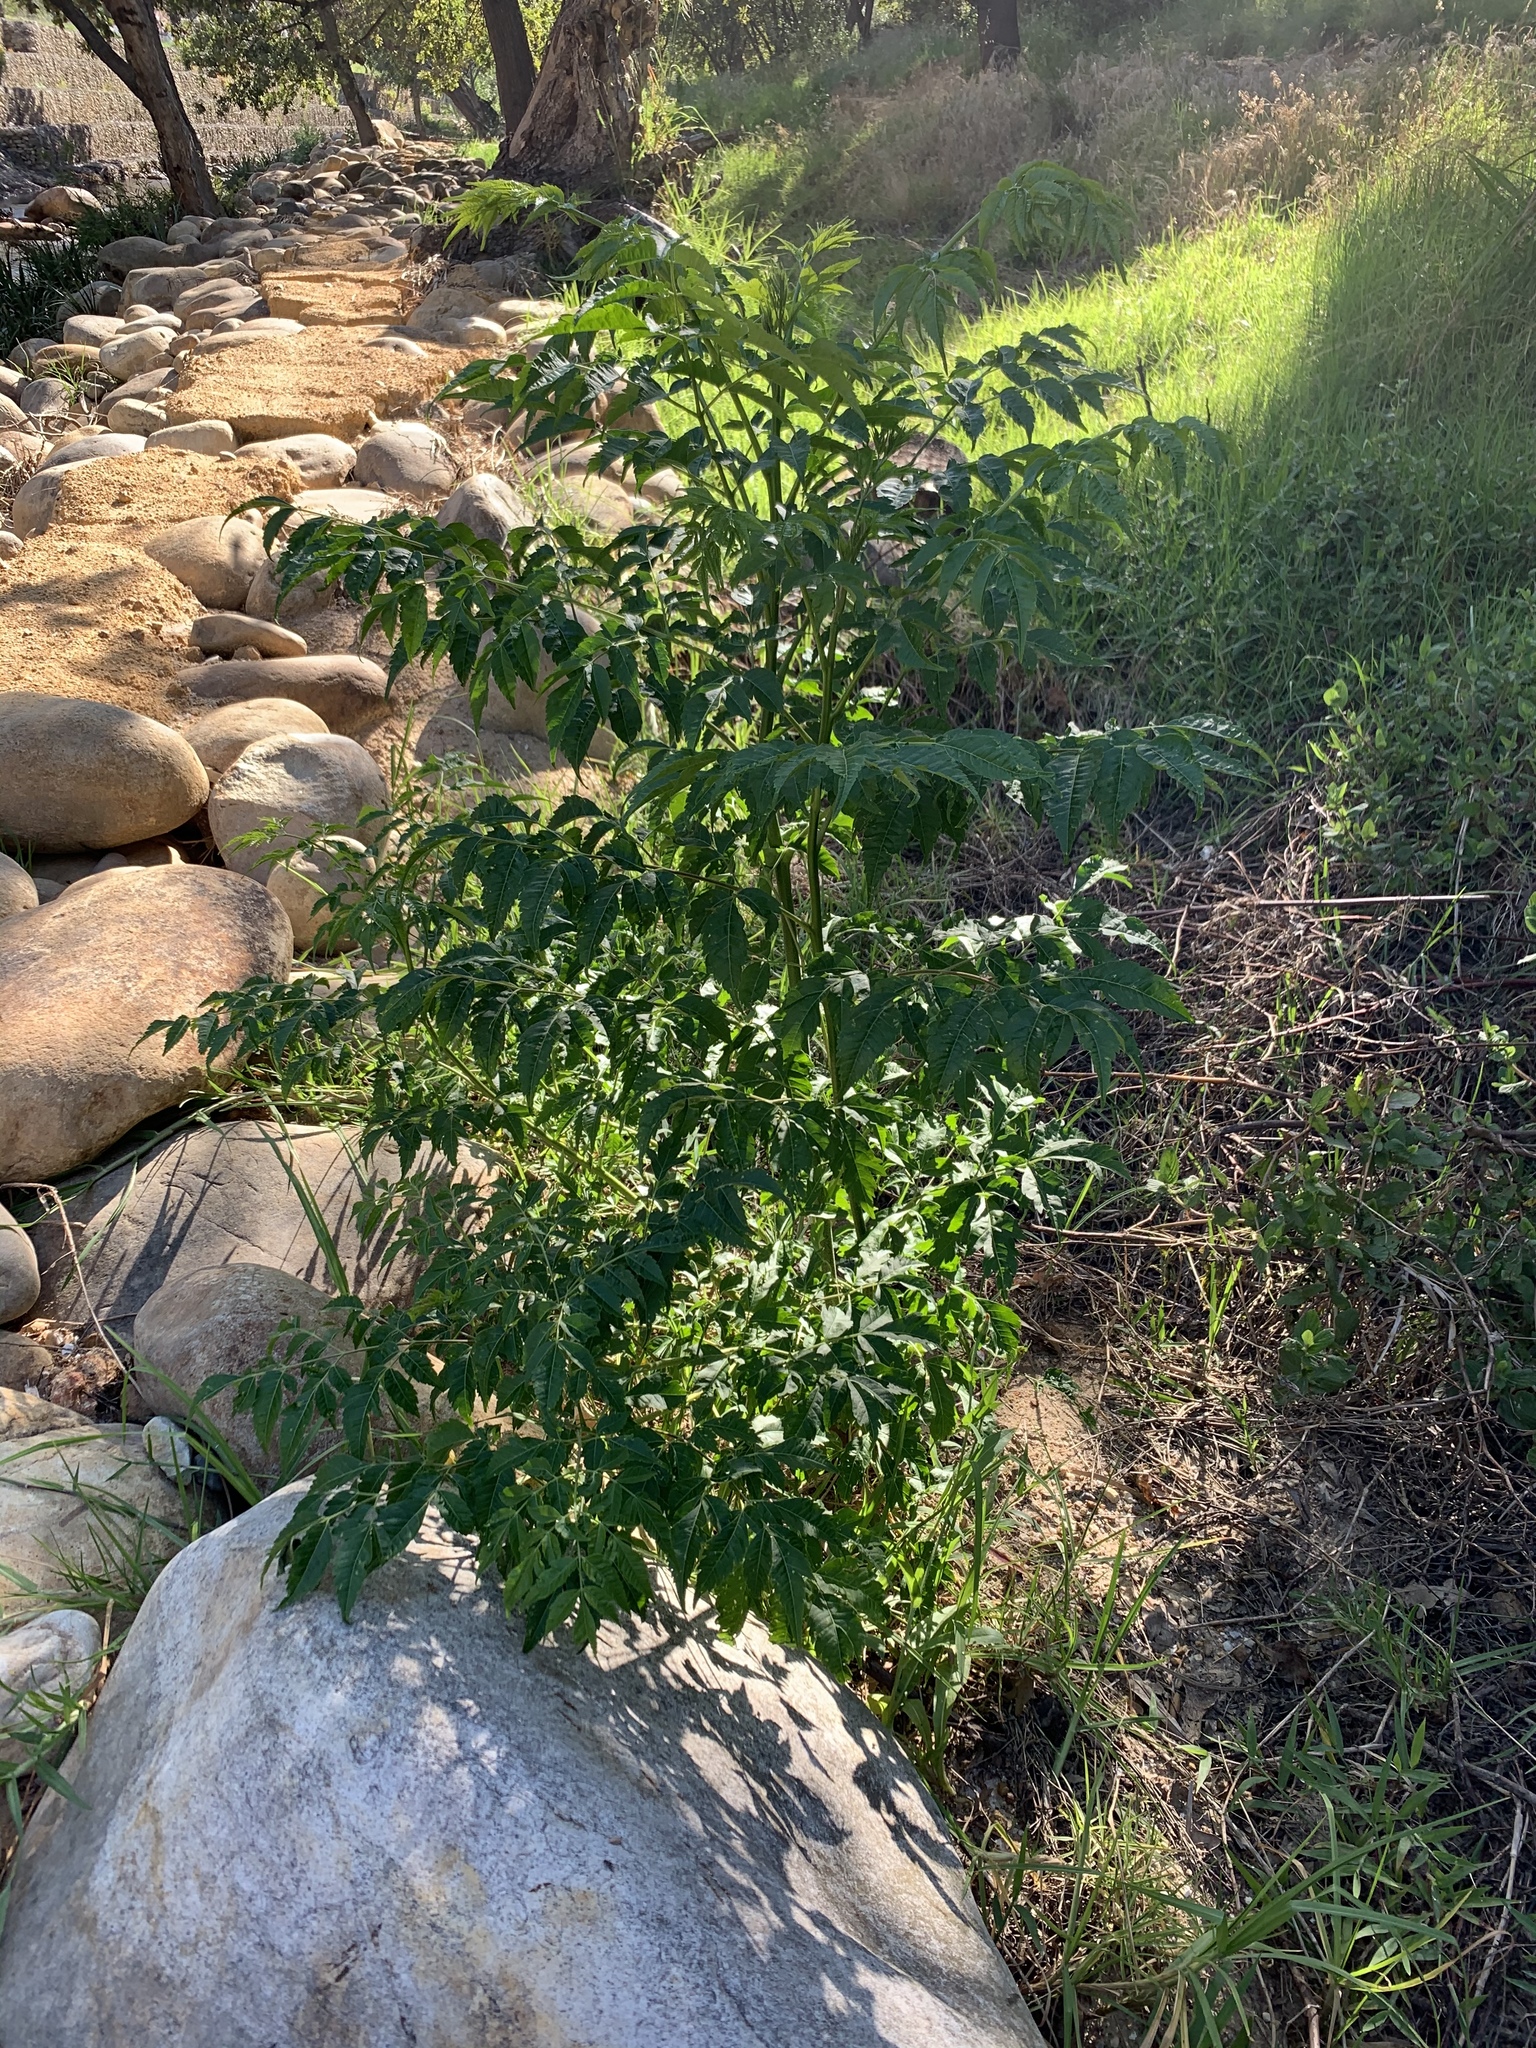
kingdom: Plantae
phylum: Tracheophyta
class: Magnoliopsida
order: Sapindales
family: Meliaceae
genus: Melia
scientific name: Melia azedarach
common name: Chinaberrytree
